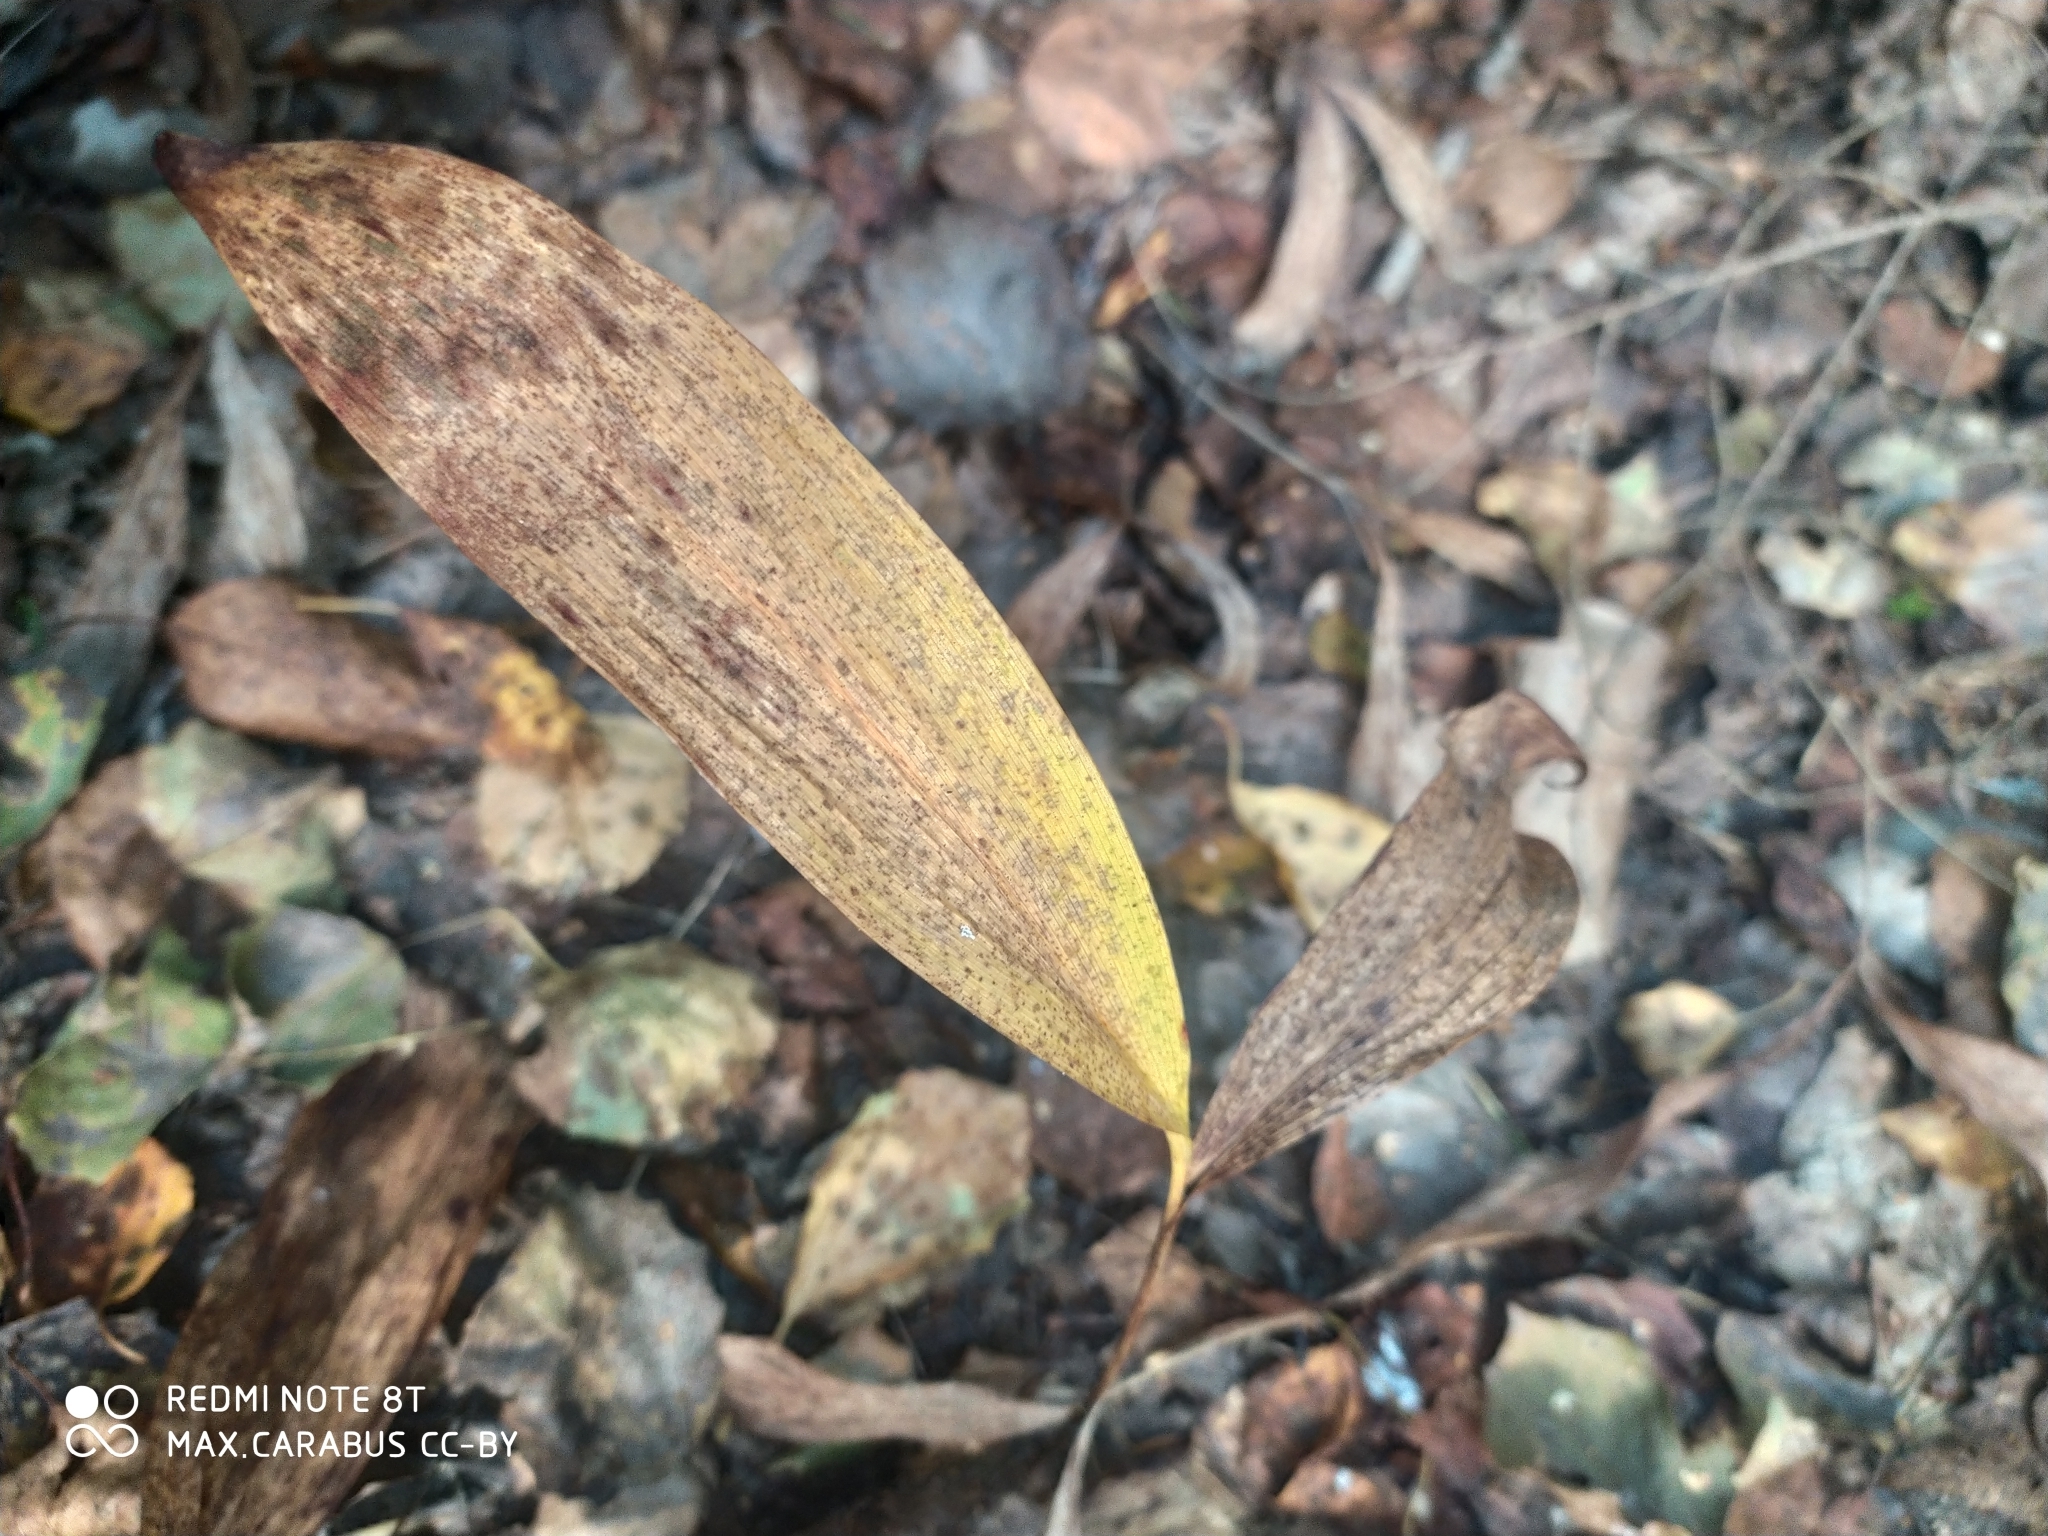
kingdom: Plantae
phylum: Tracheophyta
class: Liliopsida
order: Asparagales
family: Asparagaceae
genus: Convallaria
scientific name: Convallaria majalis
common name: Lily-of-the-valley
